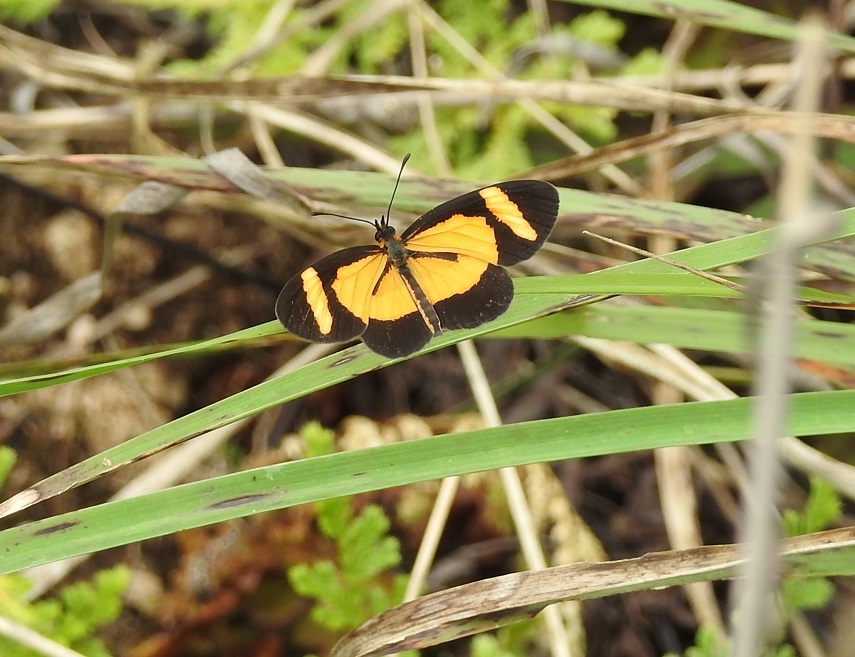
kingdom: Animalia
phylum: Arthropoda
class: Insecta
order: Lepidoptera
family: Nymphalidae
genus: Microtia
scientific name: Microtia elva
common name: Elf
